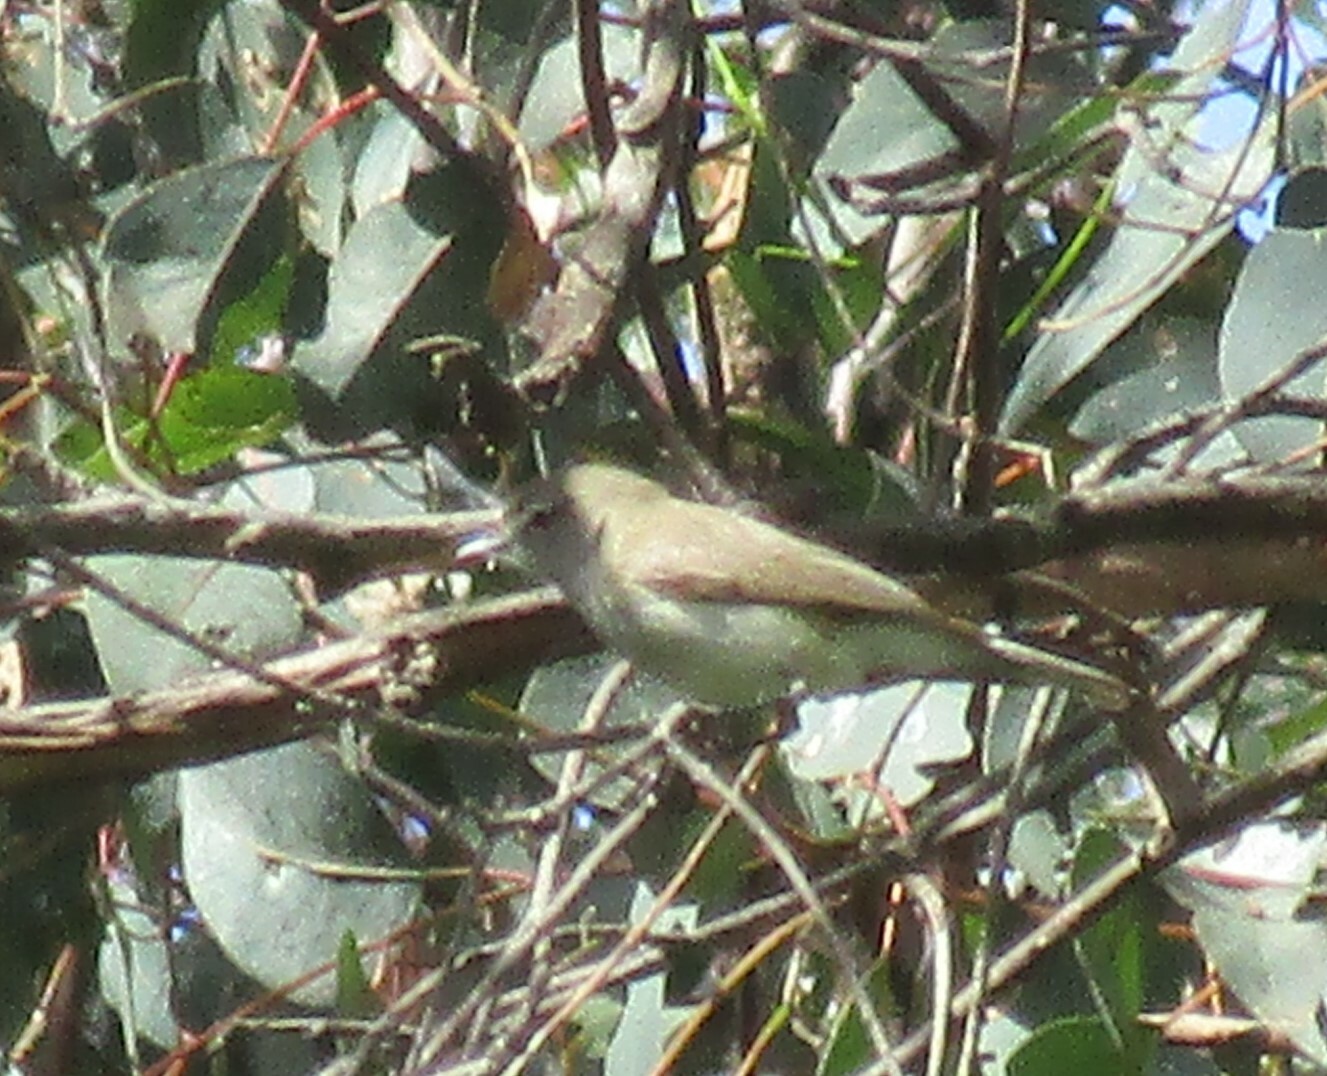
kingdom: Animalia
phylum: Chordata
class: Aves
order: Passeriformes
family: Acanthizidae
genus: Gerygone
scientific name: Gerygone fusca
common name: Western gerygone
